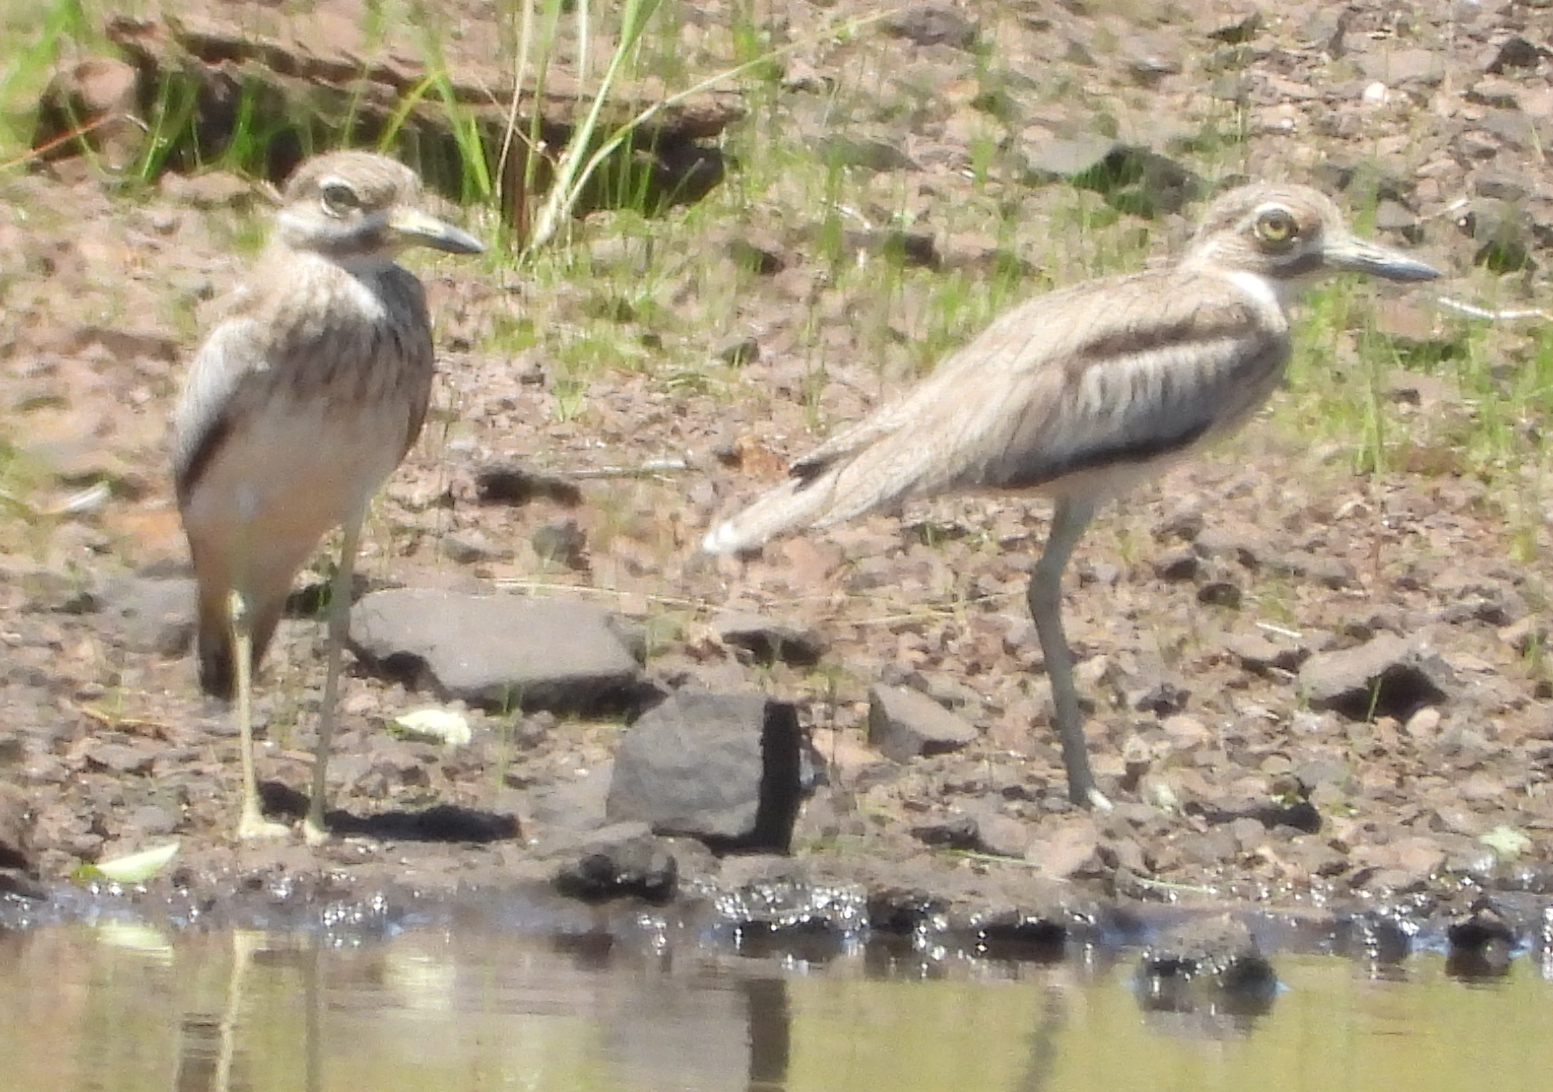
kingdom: Animalia
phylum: Chordata
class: Aves
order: Charadriiformes
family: Burhinidae
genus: Burhinus
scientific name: Burhinus vermiculatus
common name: Water thick-knee
